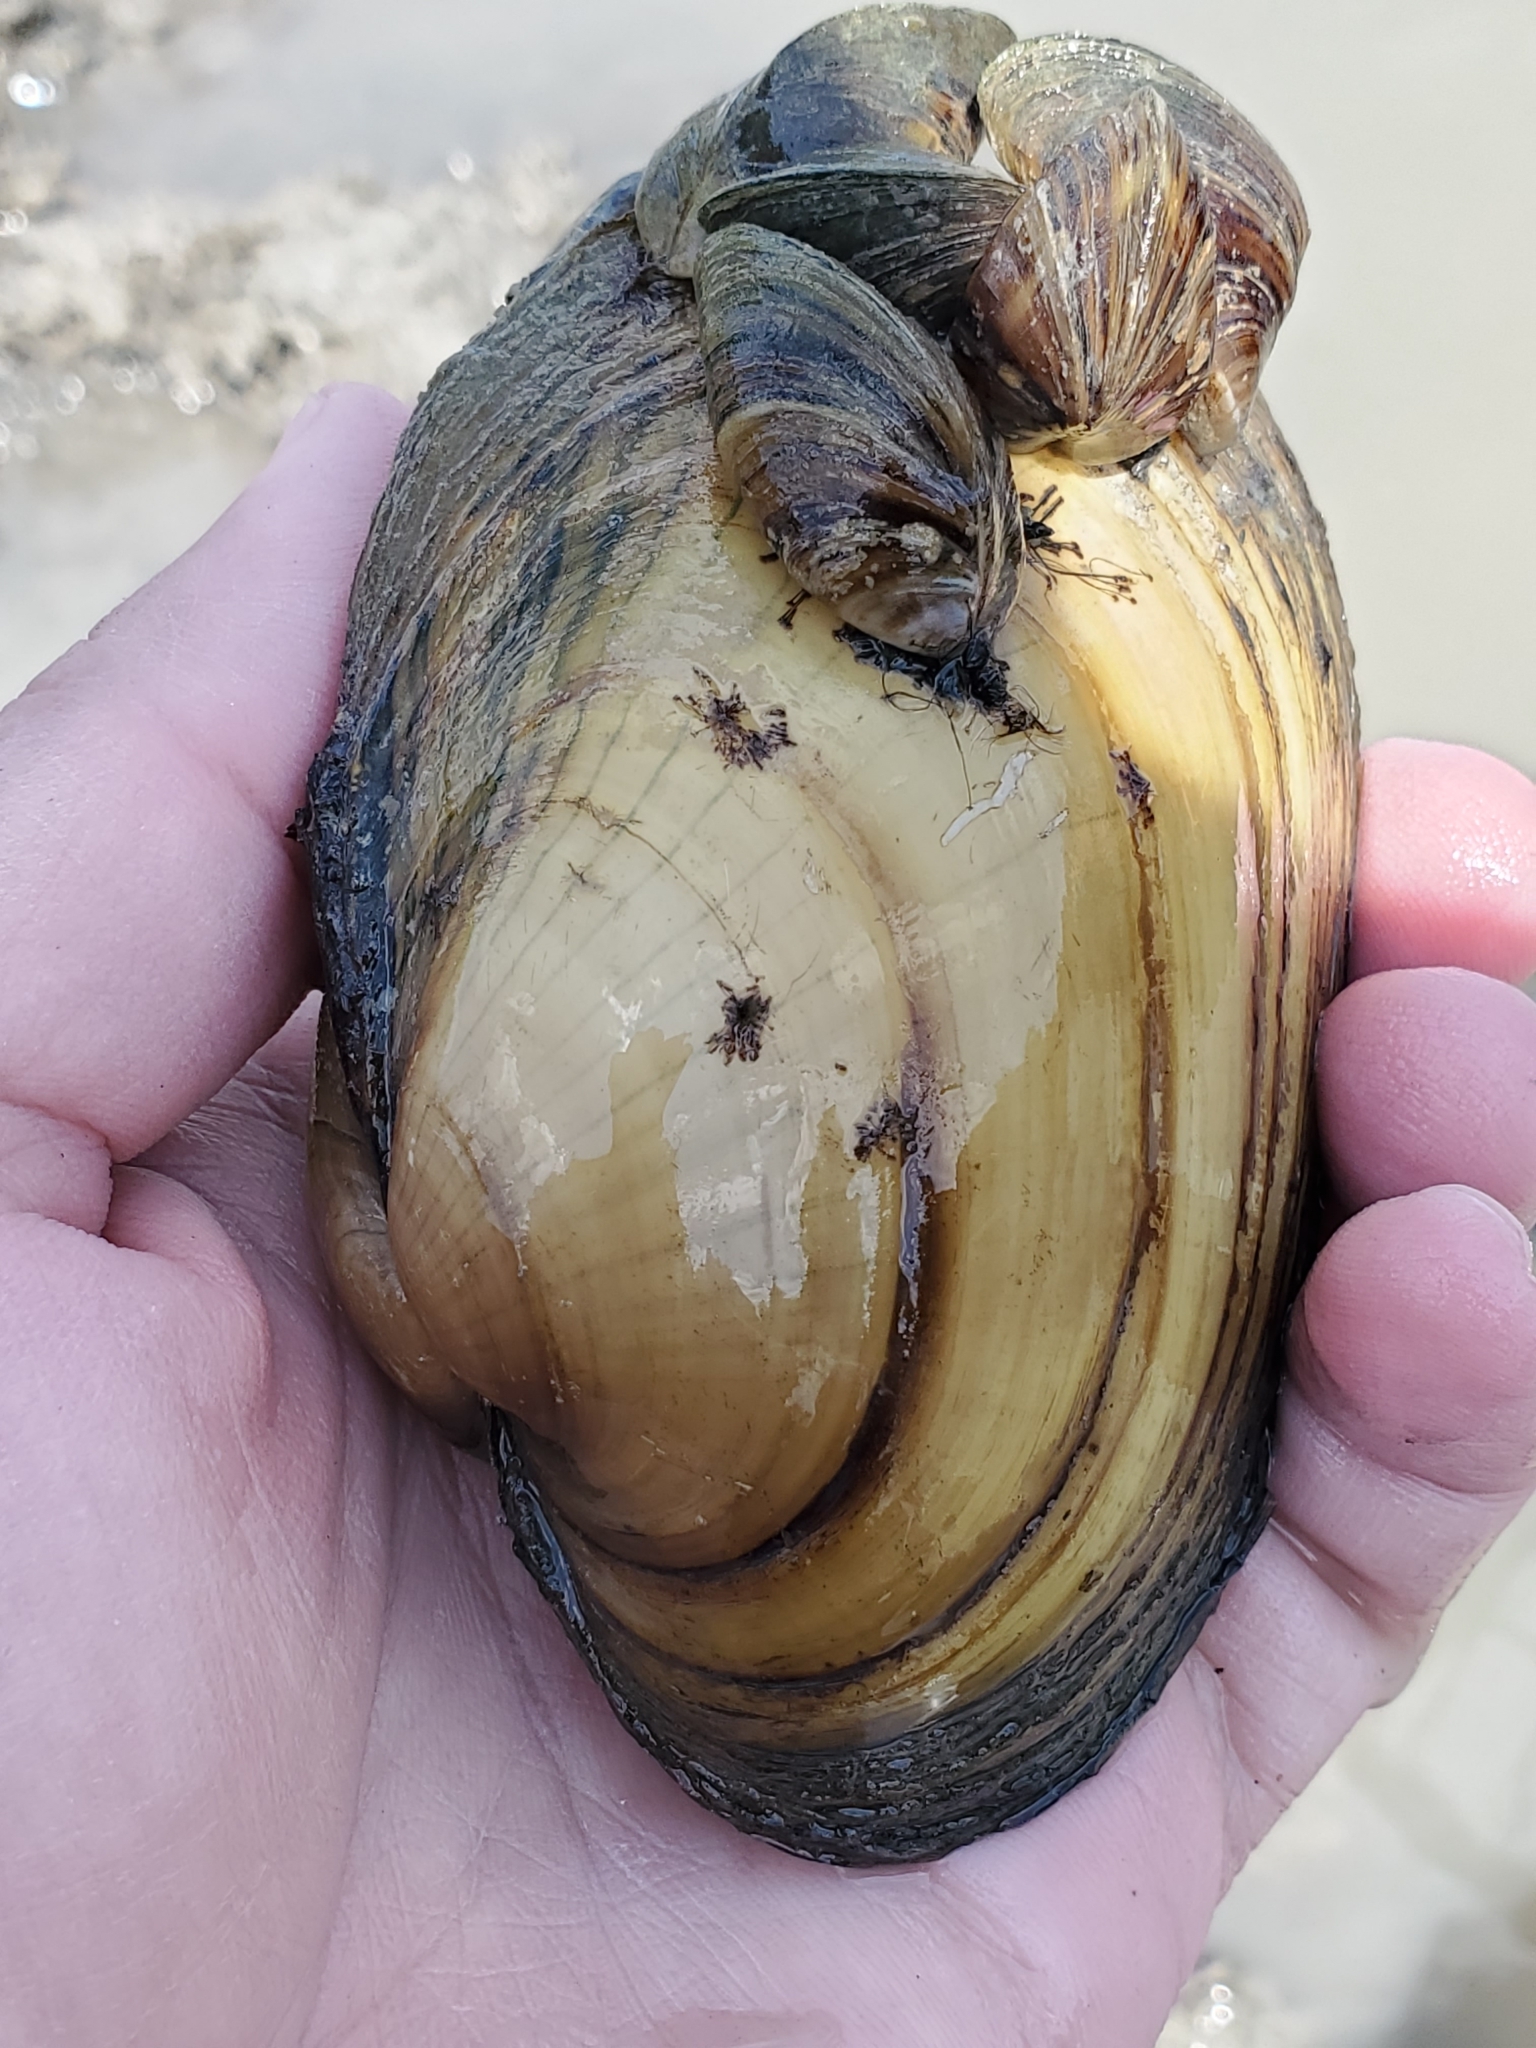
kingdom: Animalia
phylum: Mollusca
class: Bivalvia
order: Unionida
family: Unionidae
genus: Lampsilis
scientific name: Lampsilis cardium
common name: Plain pocketbook
